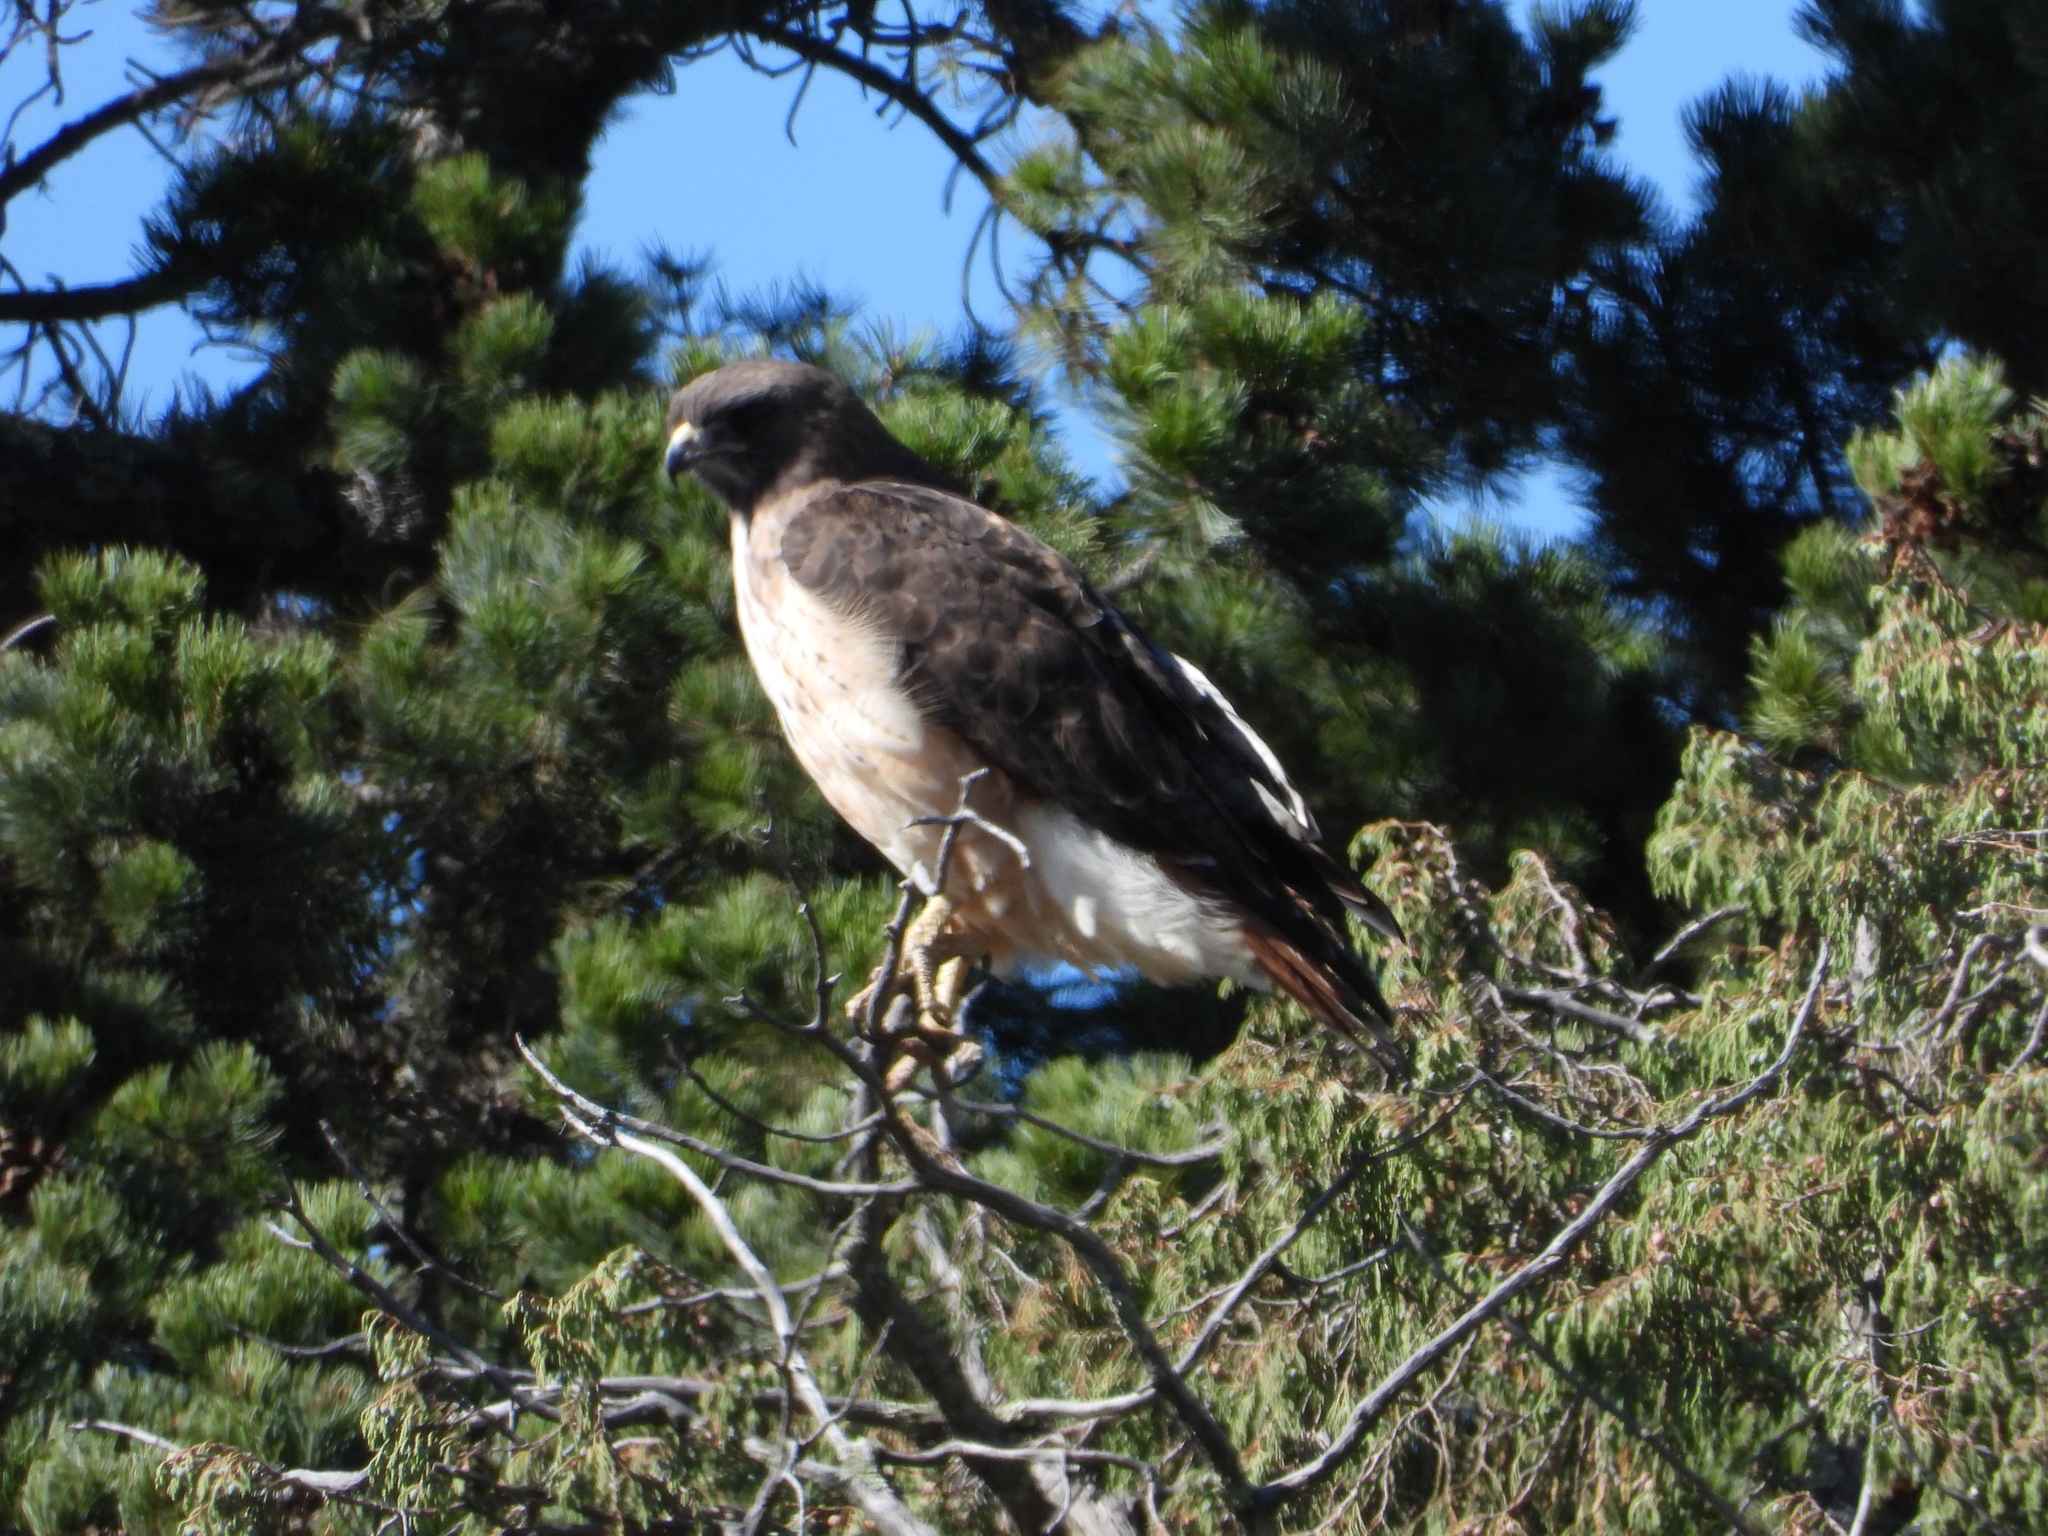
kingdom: Animalia
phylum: Chordata
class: Aves
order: Accipitriformes
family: Accipitridae
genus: Buteo
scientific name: Buteo jamaicensis
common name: Red-tailed hawk
